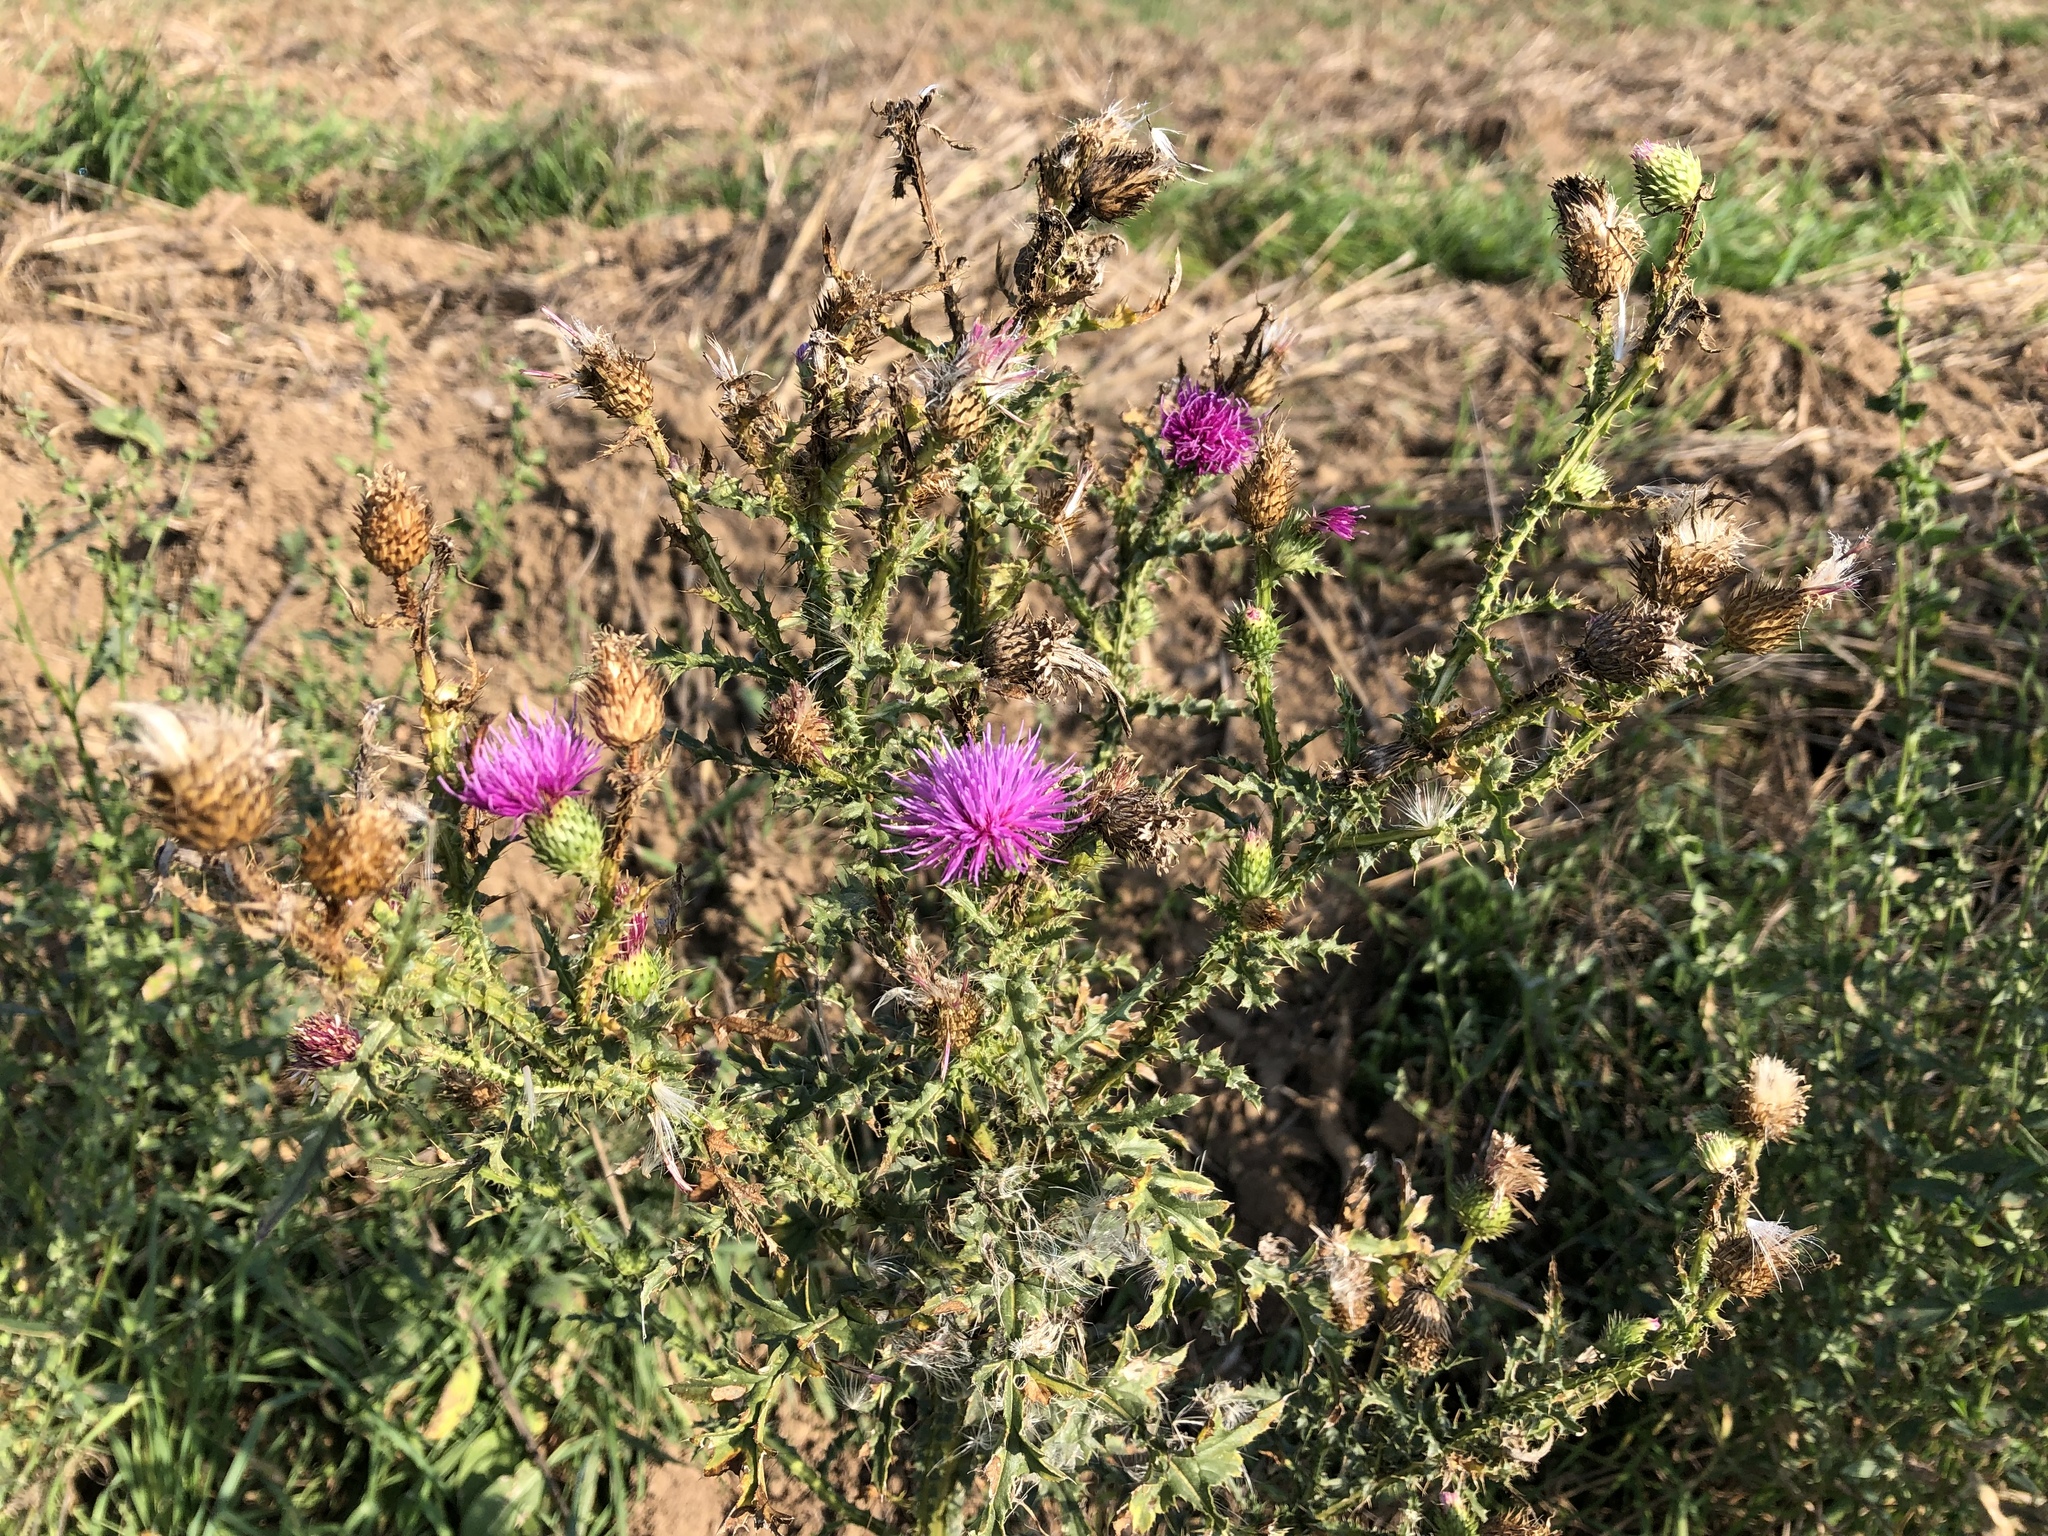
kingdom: Plantae
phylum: Tracheophyta
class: Magnoliopsida
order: Asterales
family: Asteraceae
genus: Carduus
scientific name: Carduus acanthoides
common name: Plumeless thistle
